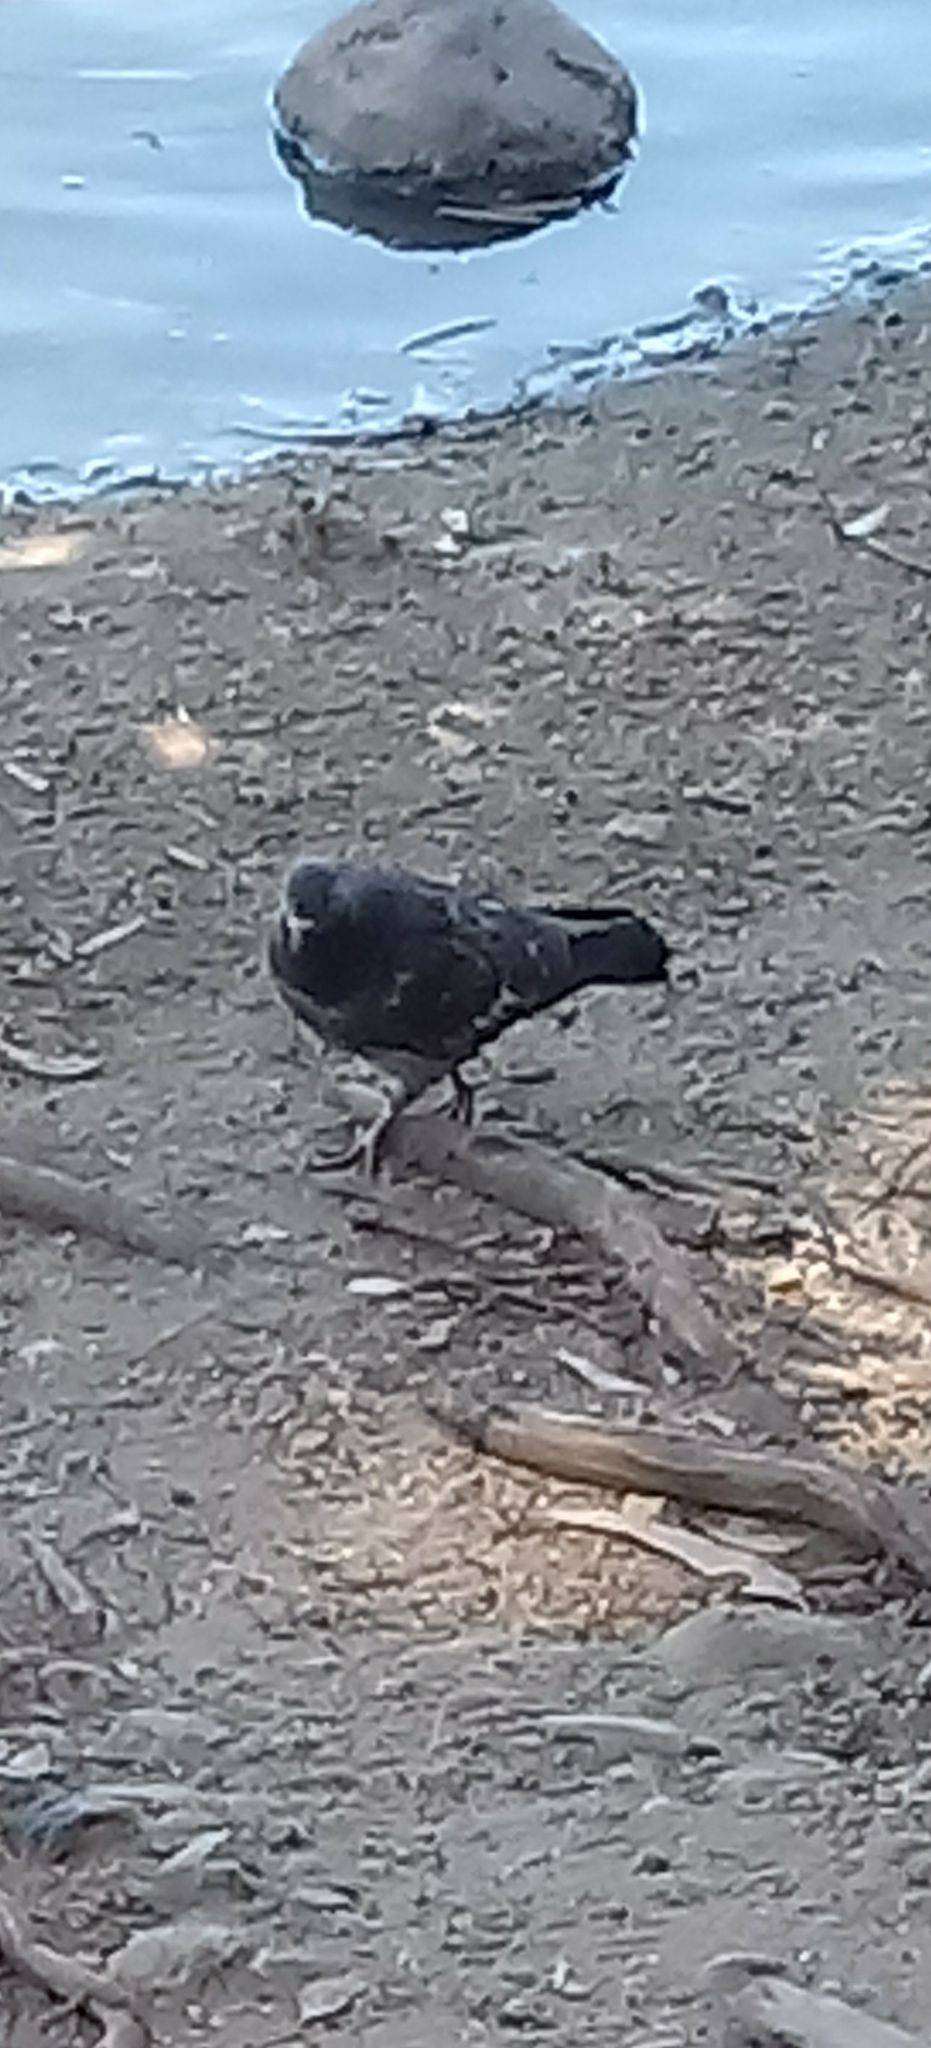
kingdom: Animalia
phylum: Chordata
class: Aves
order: Columbiformes
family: Columbidae
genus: Columba
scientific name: Columba livia
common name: Rock pigeon
